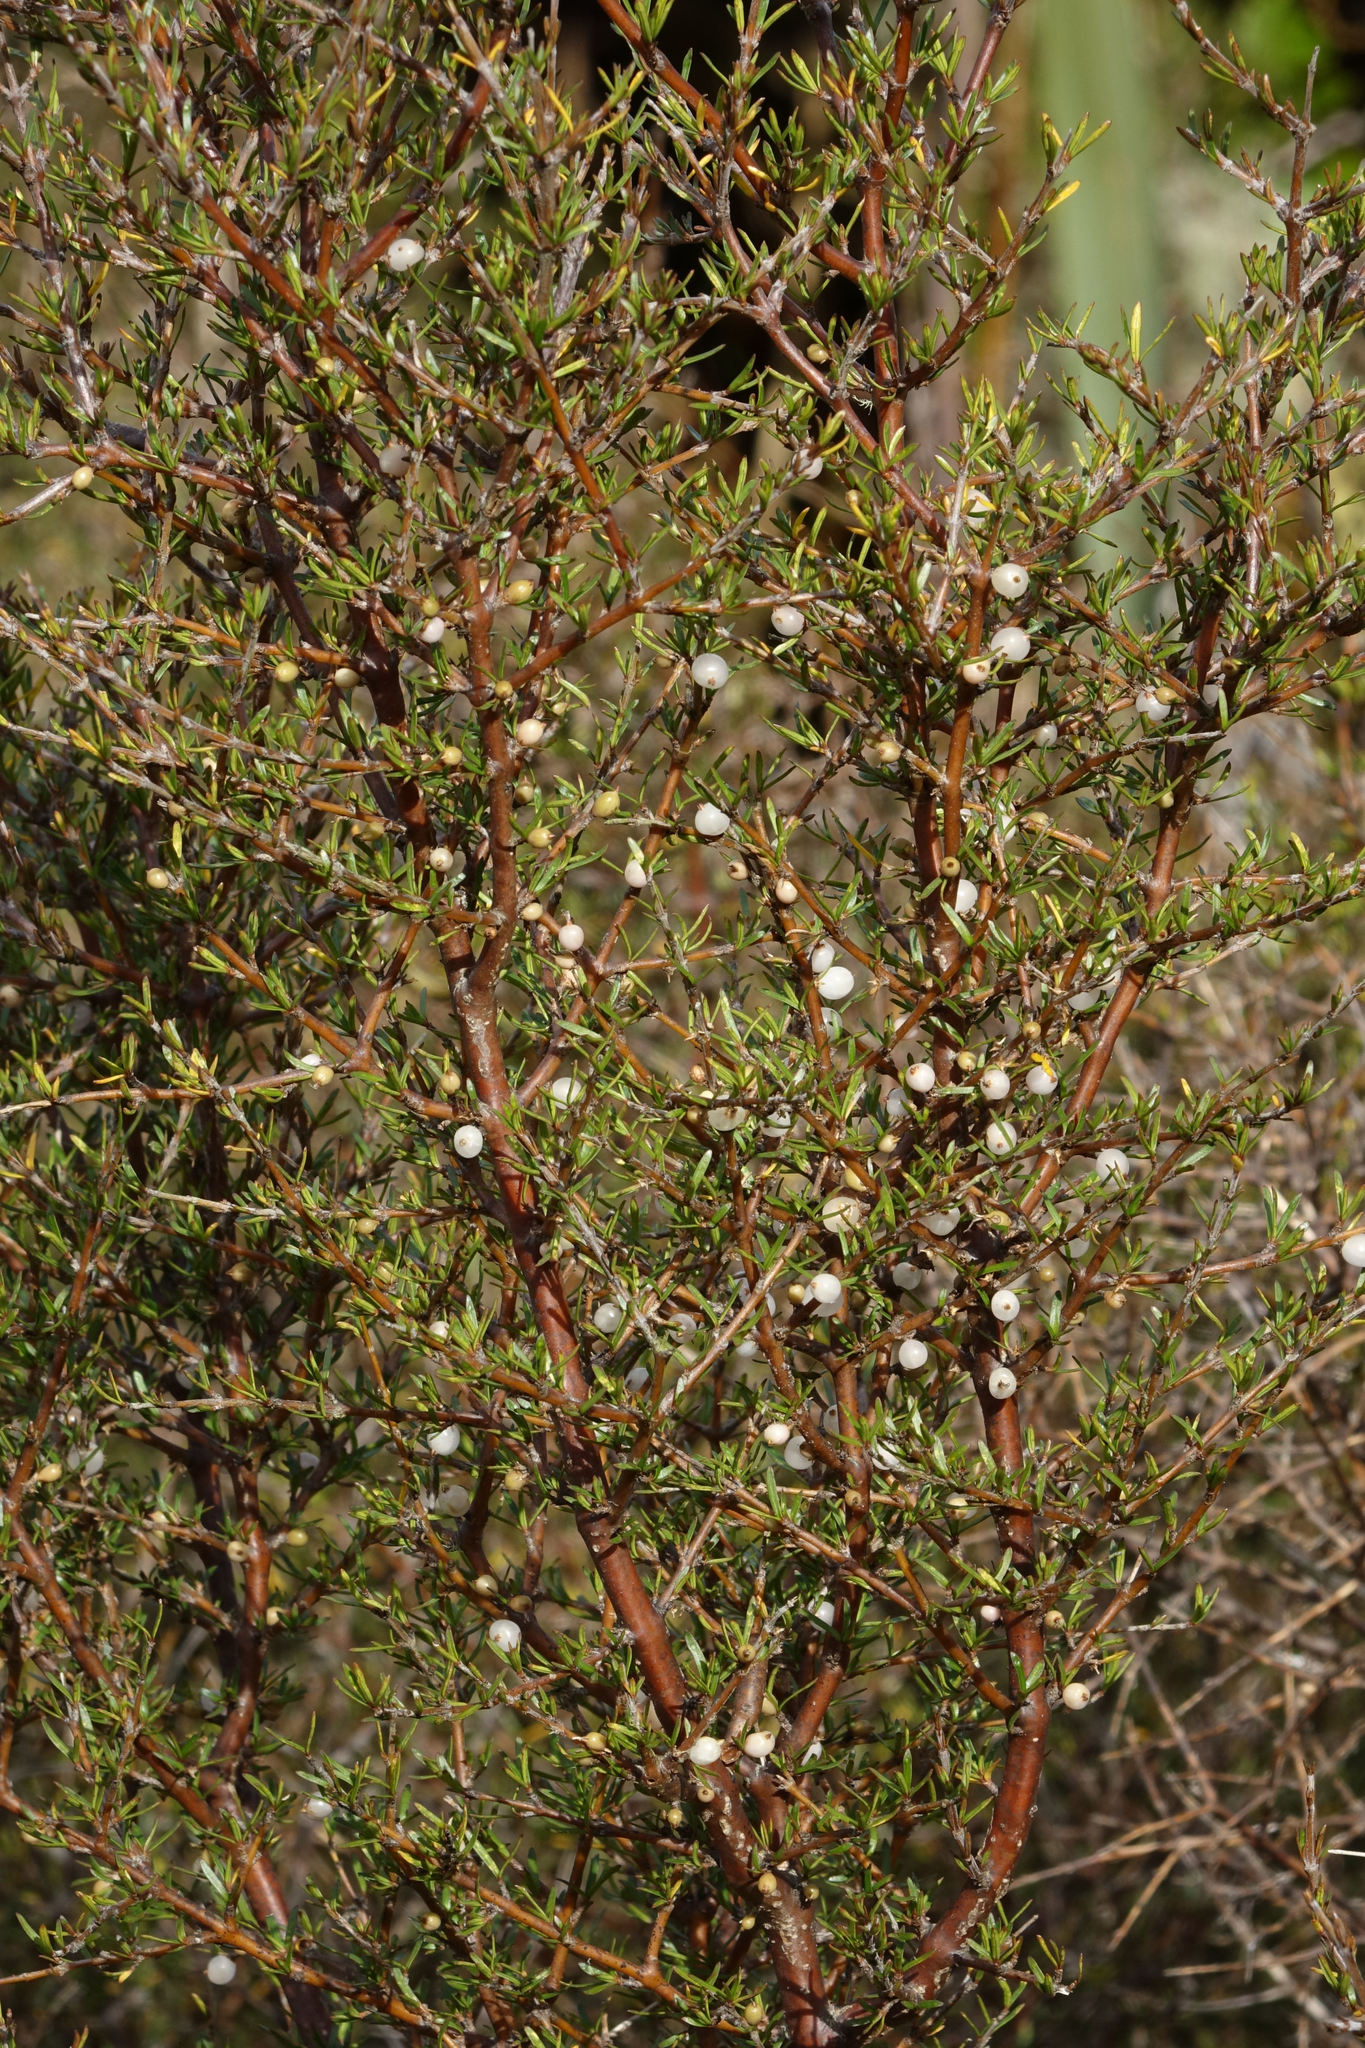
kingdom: Plantae
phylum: Tracheophyta
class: Magnoliopsida
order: Gentianales
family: Rubiaceae
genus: Coprosma
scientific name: Coprosma rugosa
